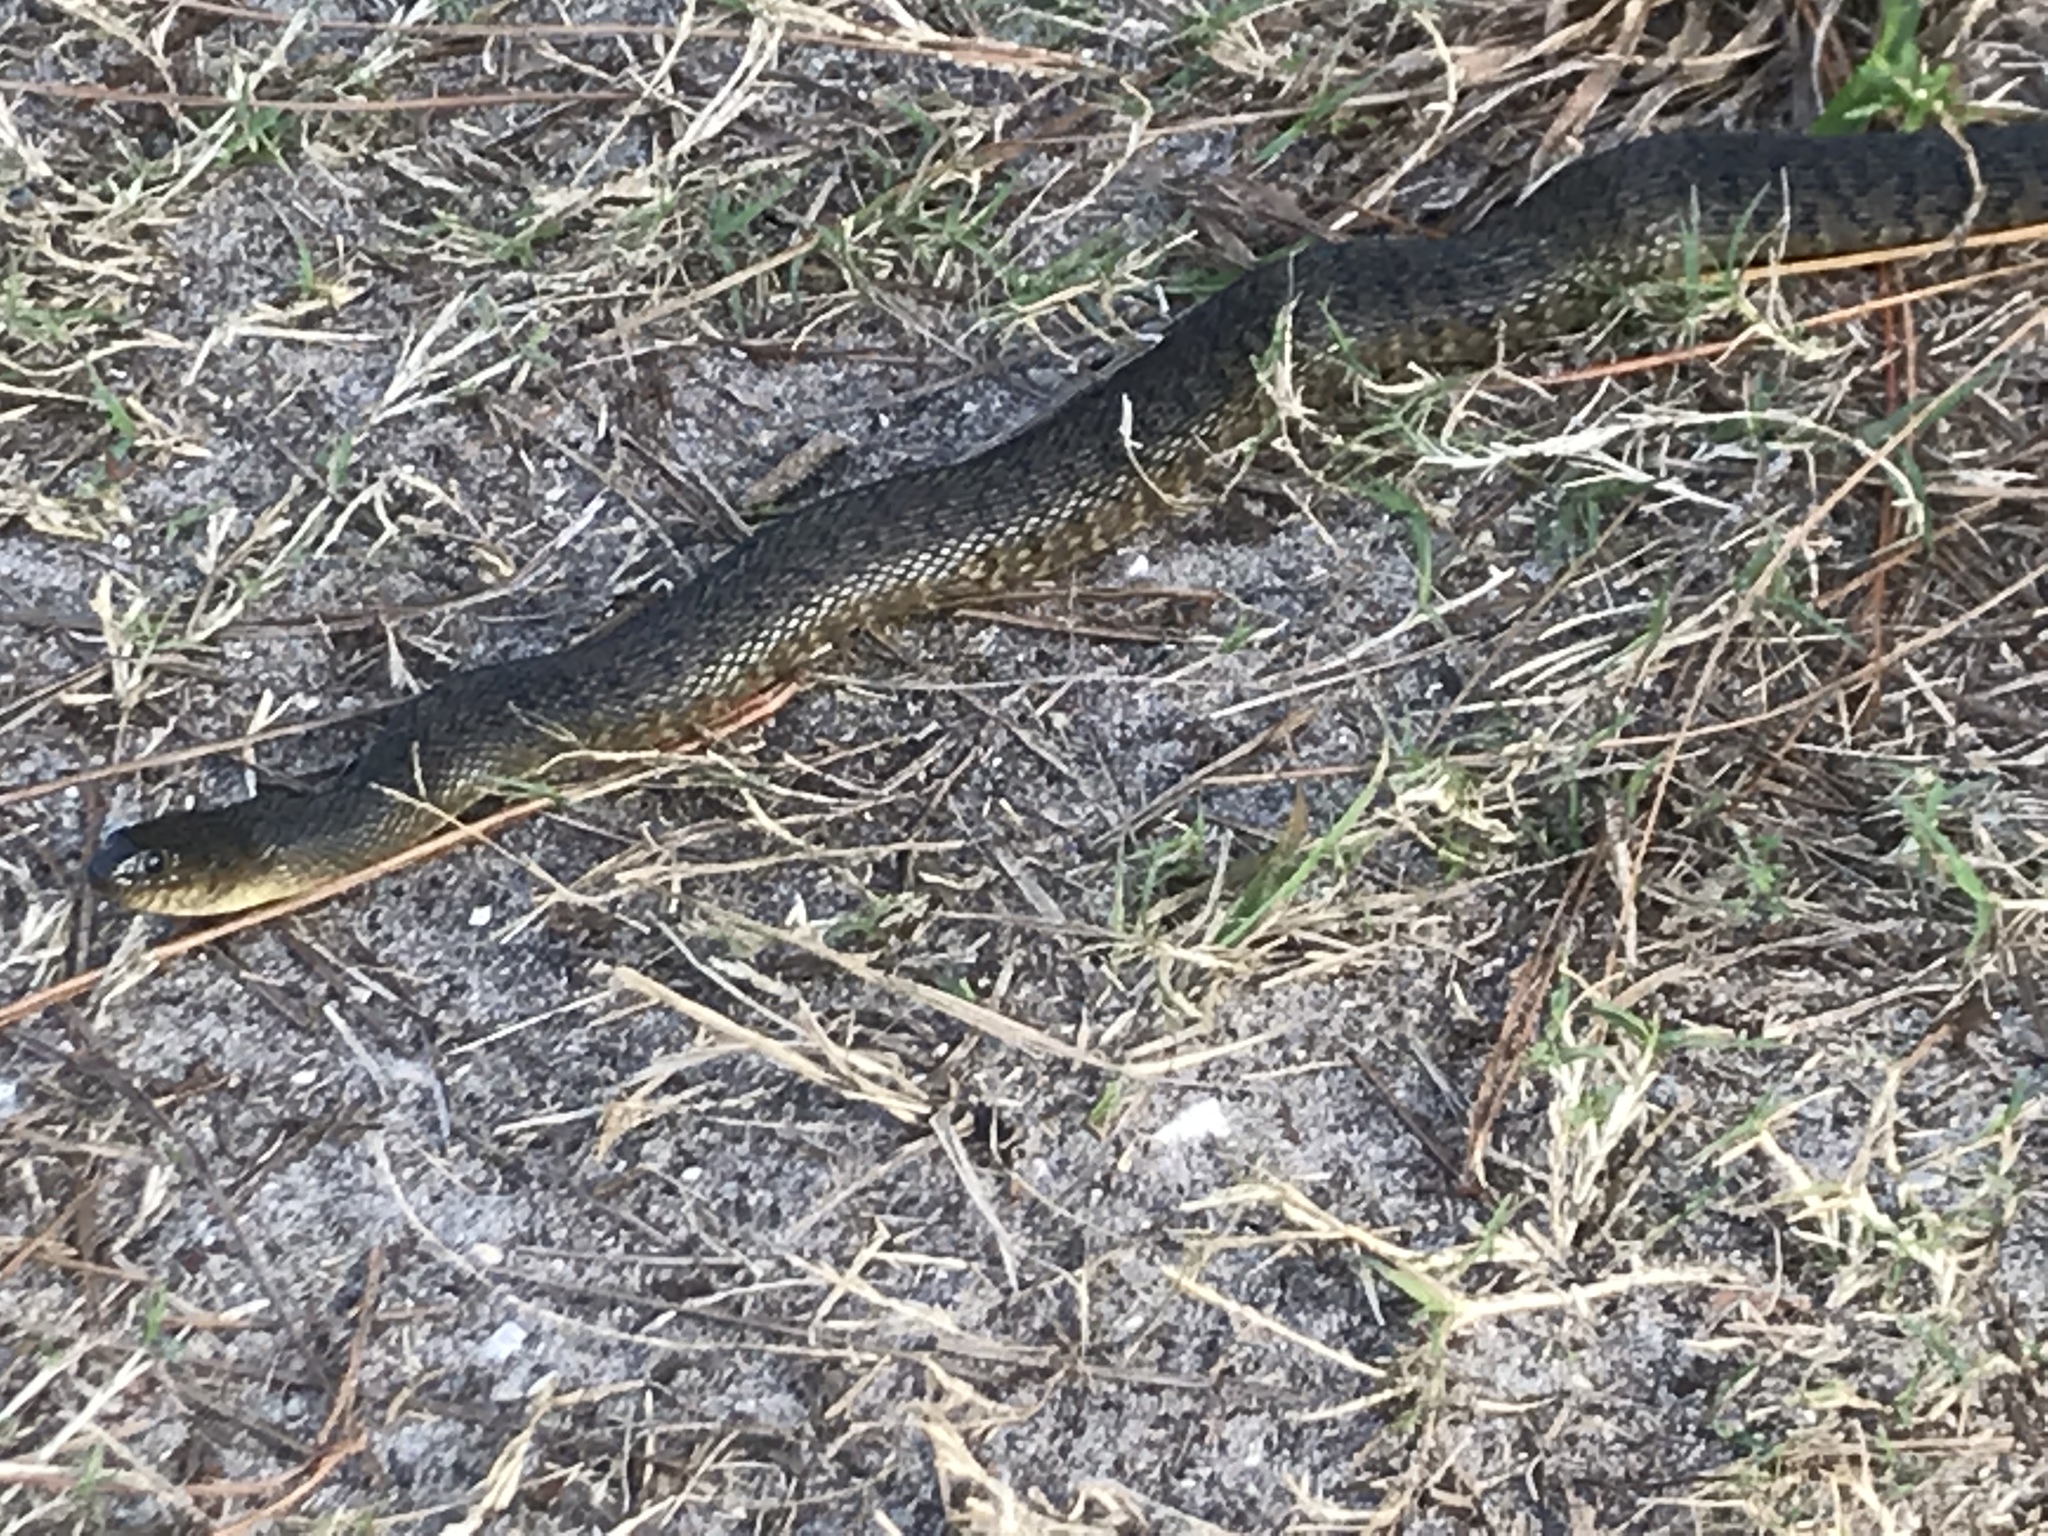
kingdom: Animalia
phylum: Chordata
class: Squamata
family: Colubridae
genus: Nerodia
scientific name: Nerodia floridana
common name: Florida green watersnake
